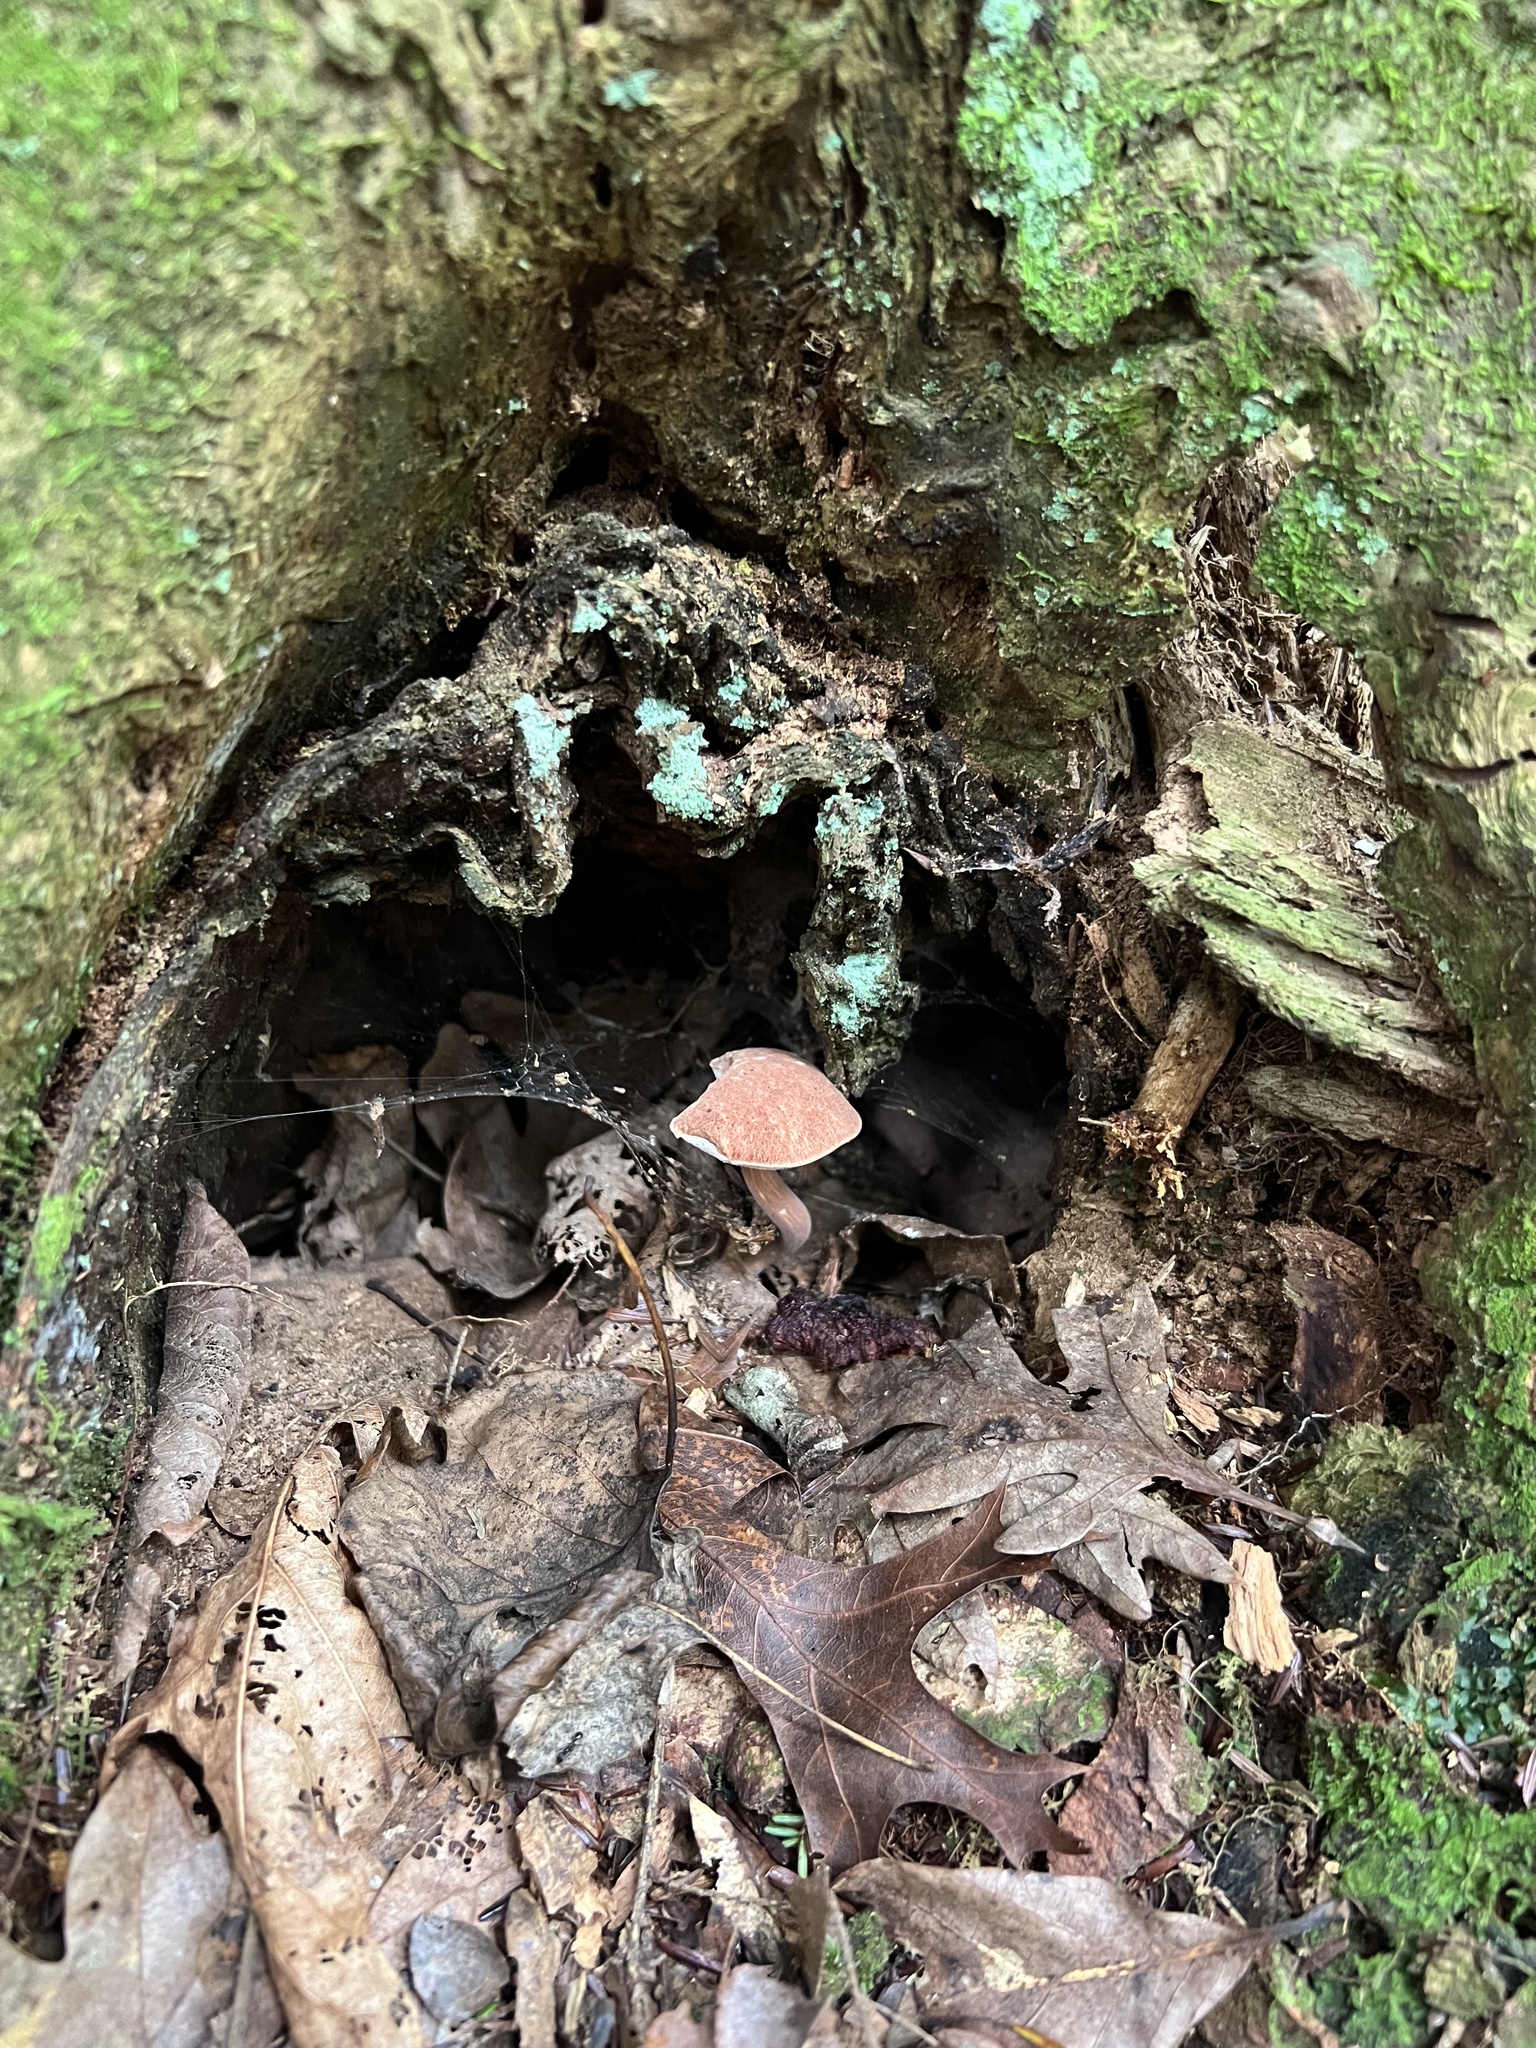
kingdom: Fungi
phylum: Basidiomycota
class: Agaricomycetes
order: Boletales
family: Boletaceae
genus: Austroboletus
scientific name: Austroboletus gracilis
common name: Graceful bolete
